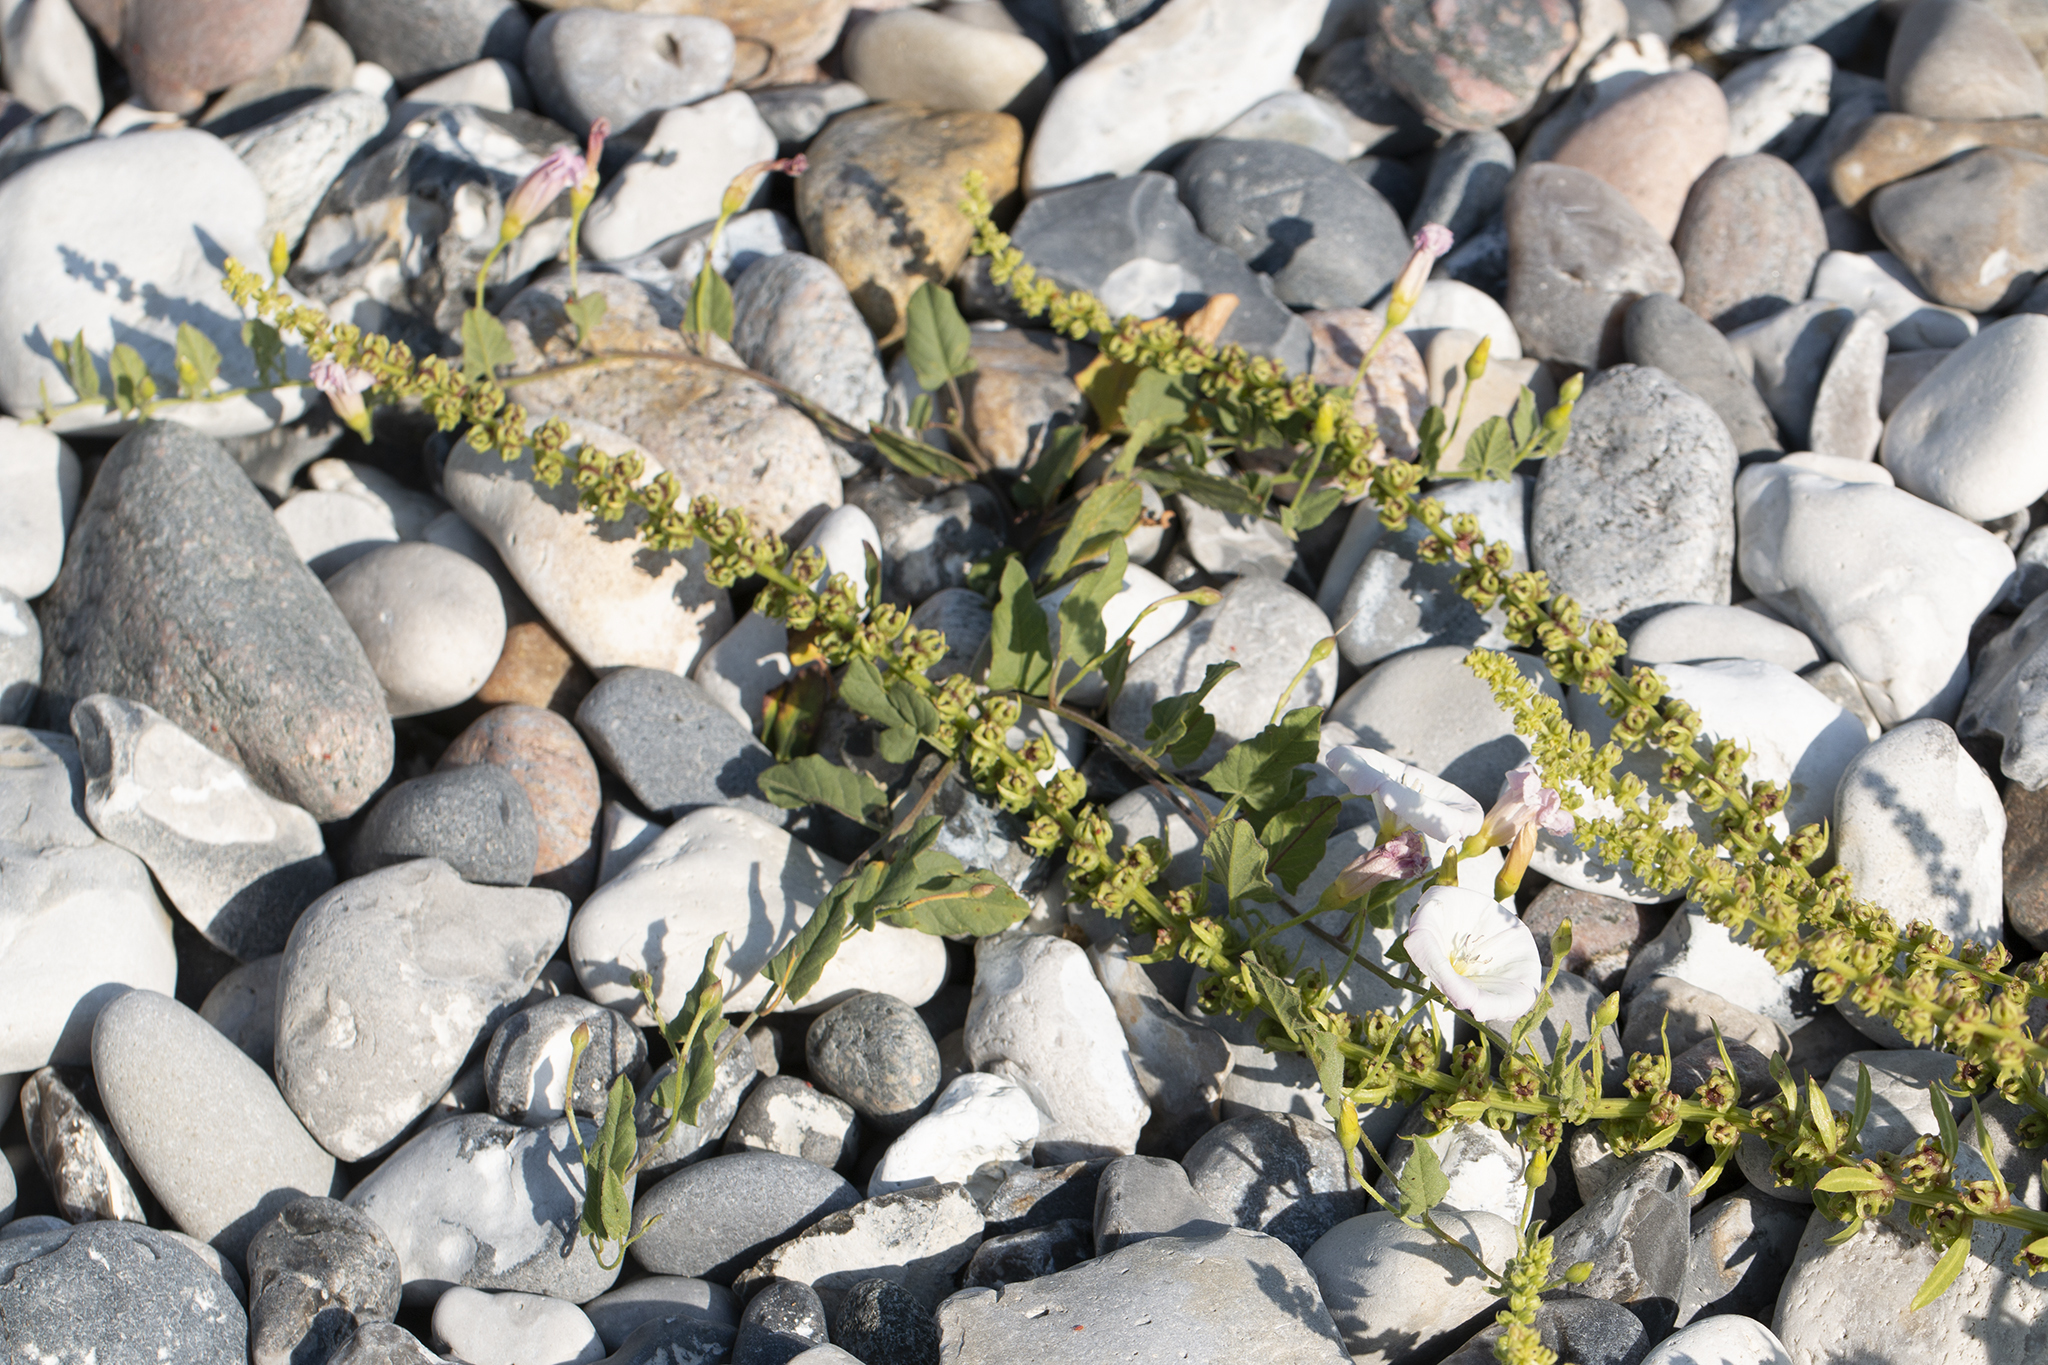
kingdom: Plantae
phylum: Tracheophyta
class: Magnoliopsida
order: Caryophyllales
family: Amaranthaceae
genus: Beta
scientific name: Beta vulgaris
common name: Beet
